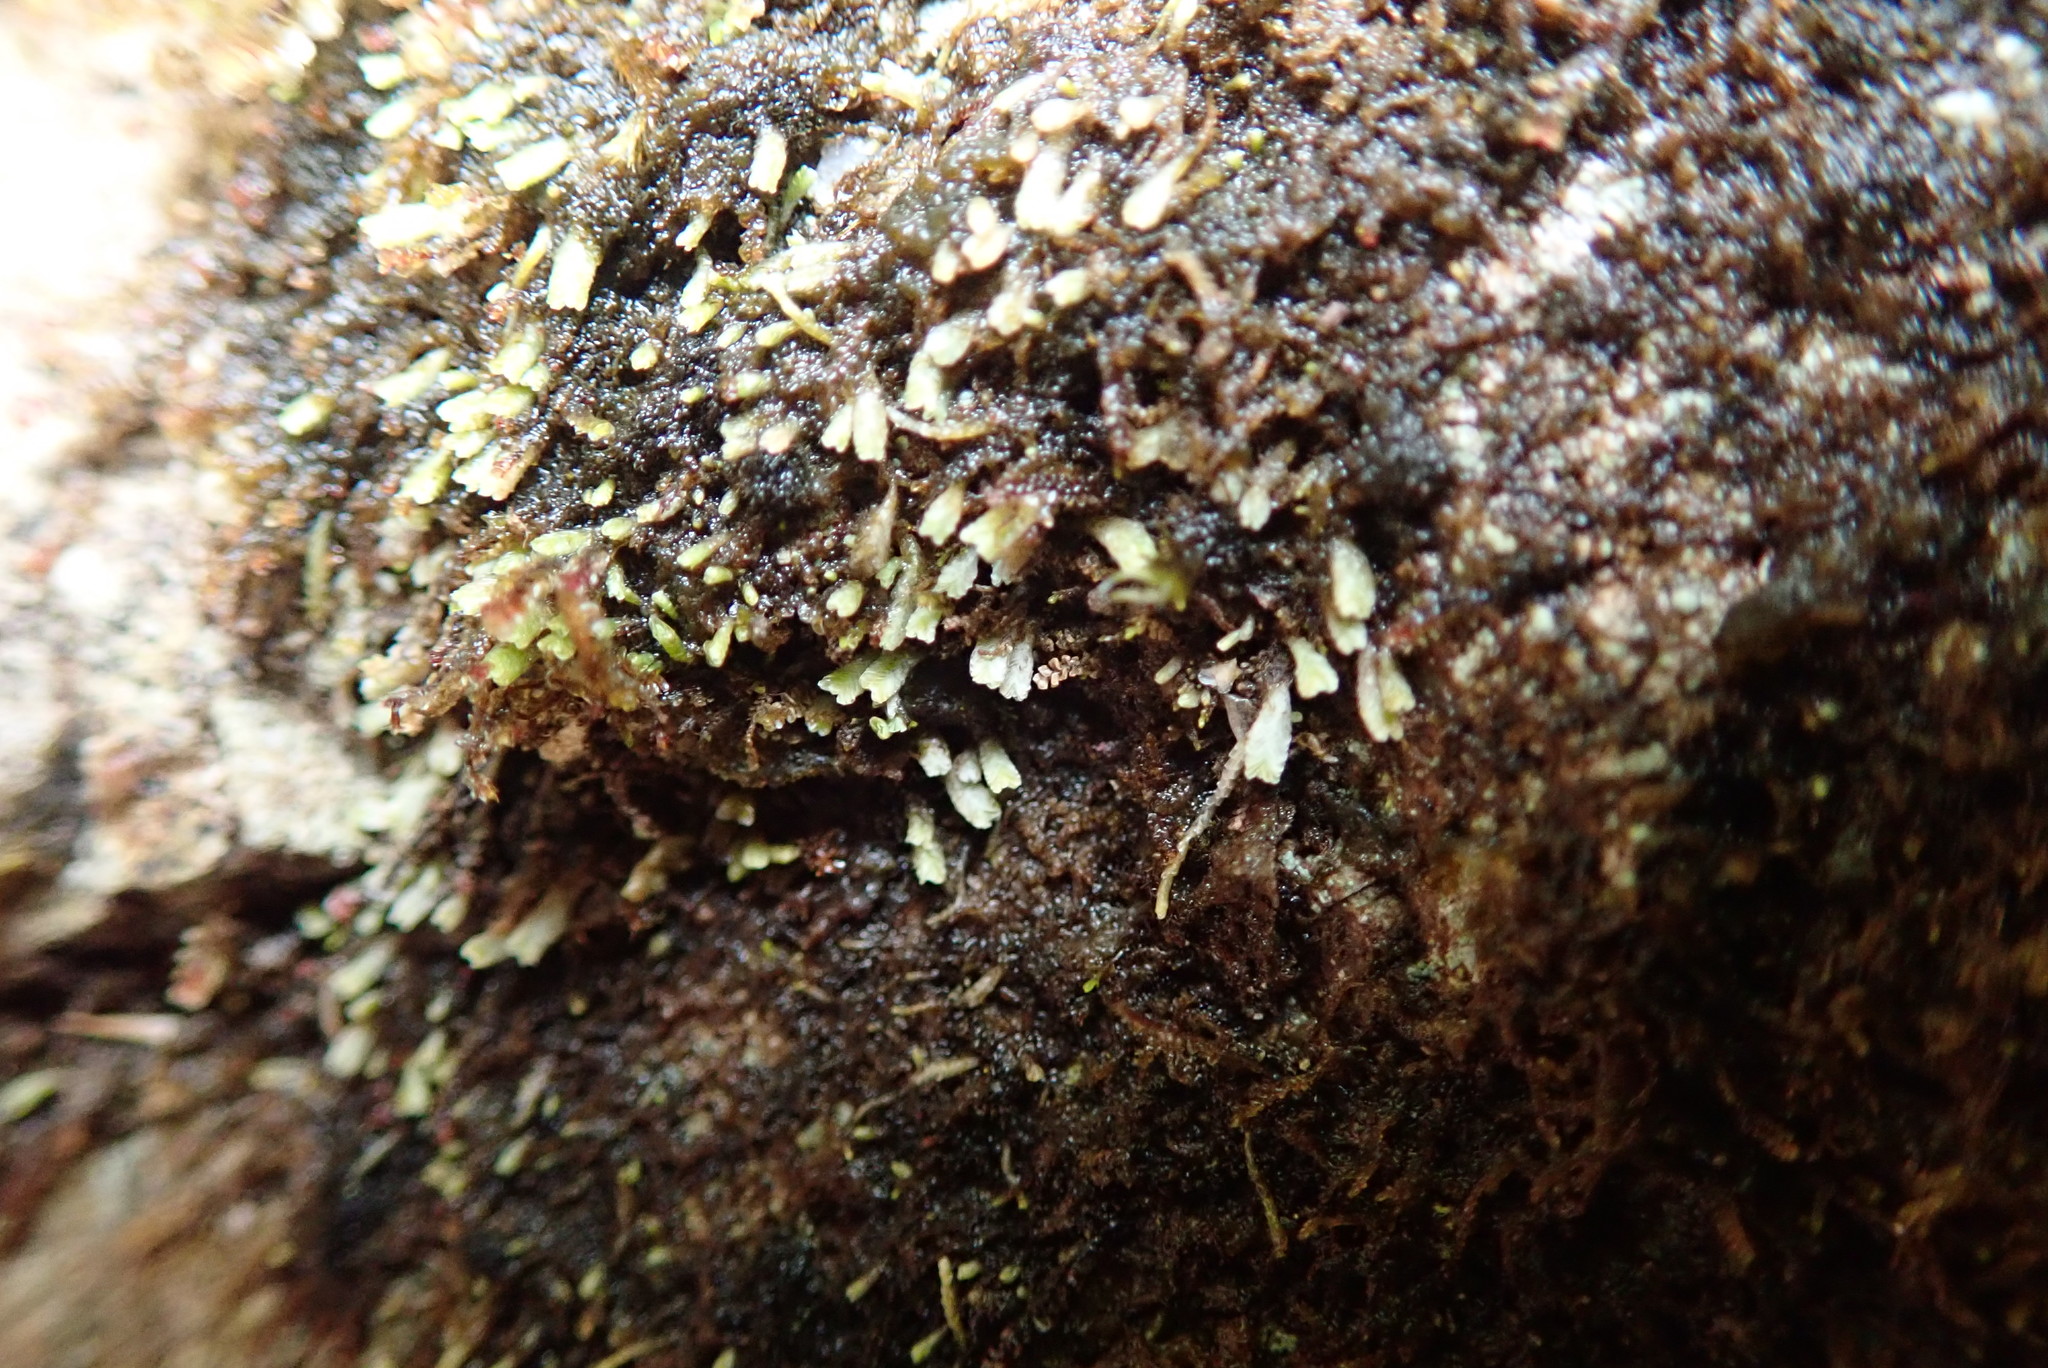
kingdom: Plantae
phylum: Marchantiophyta
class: Jungermanniopsida
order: Jungermanniales
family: Gymnomitriaceae
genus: Gymnomitrion
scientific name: Gymnomitrion obtusum
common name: White frostwort
